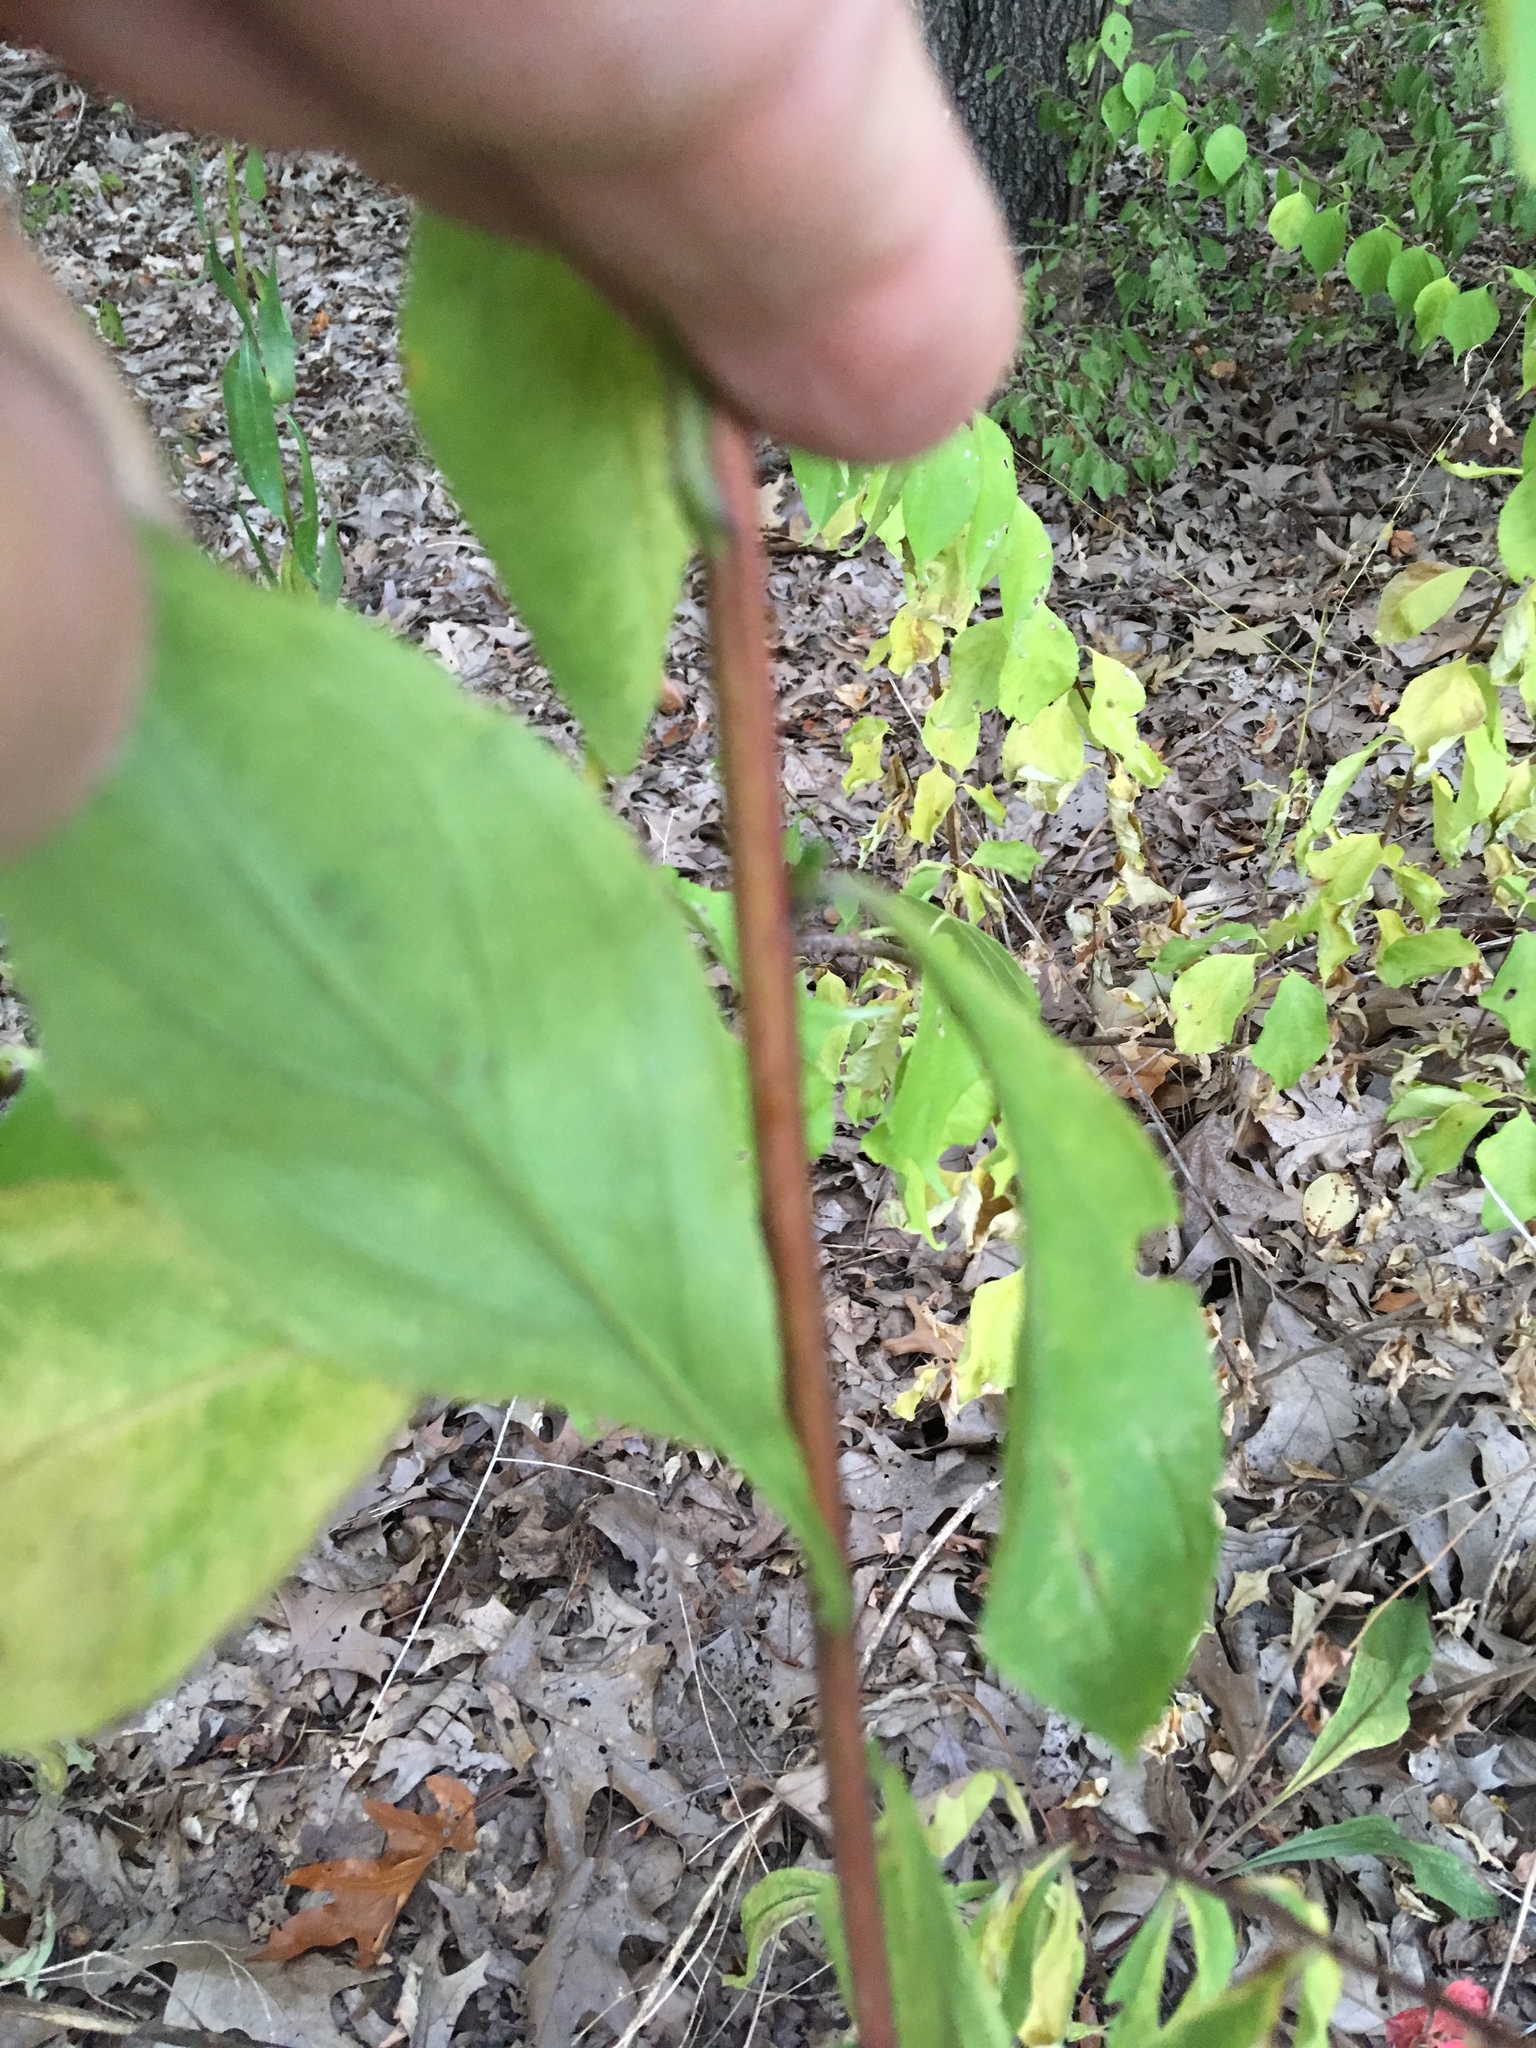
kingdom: Plantae
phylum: Tracheophyta
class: Magnoliopsida
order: Asterales
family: Asteraceae
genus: Solidago
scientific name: Solidago juncea
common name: Early goldenrod
